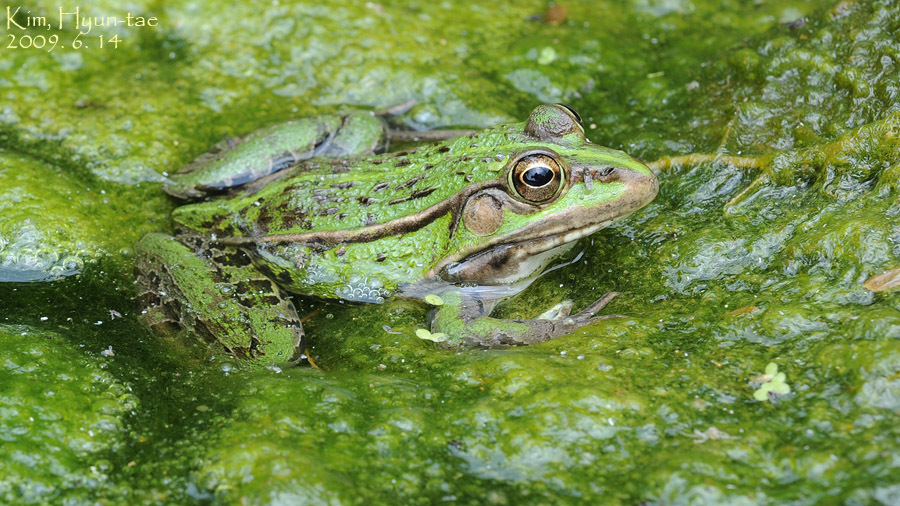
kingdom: Animalia
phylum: Chordata
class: Amphibia
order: Anura
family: Ranidae
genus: Pelophylax
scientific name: Pelophylax nigromaculatus
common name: Black-spotted pond frog
